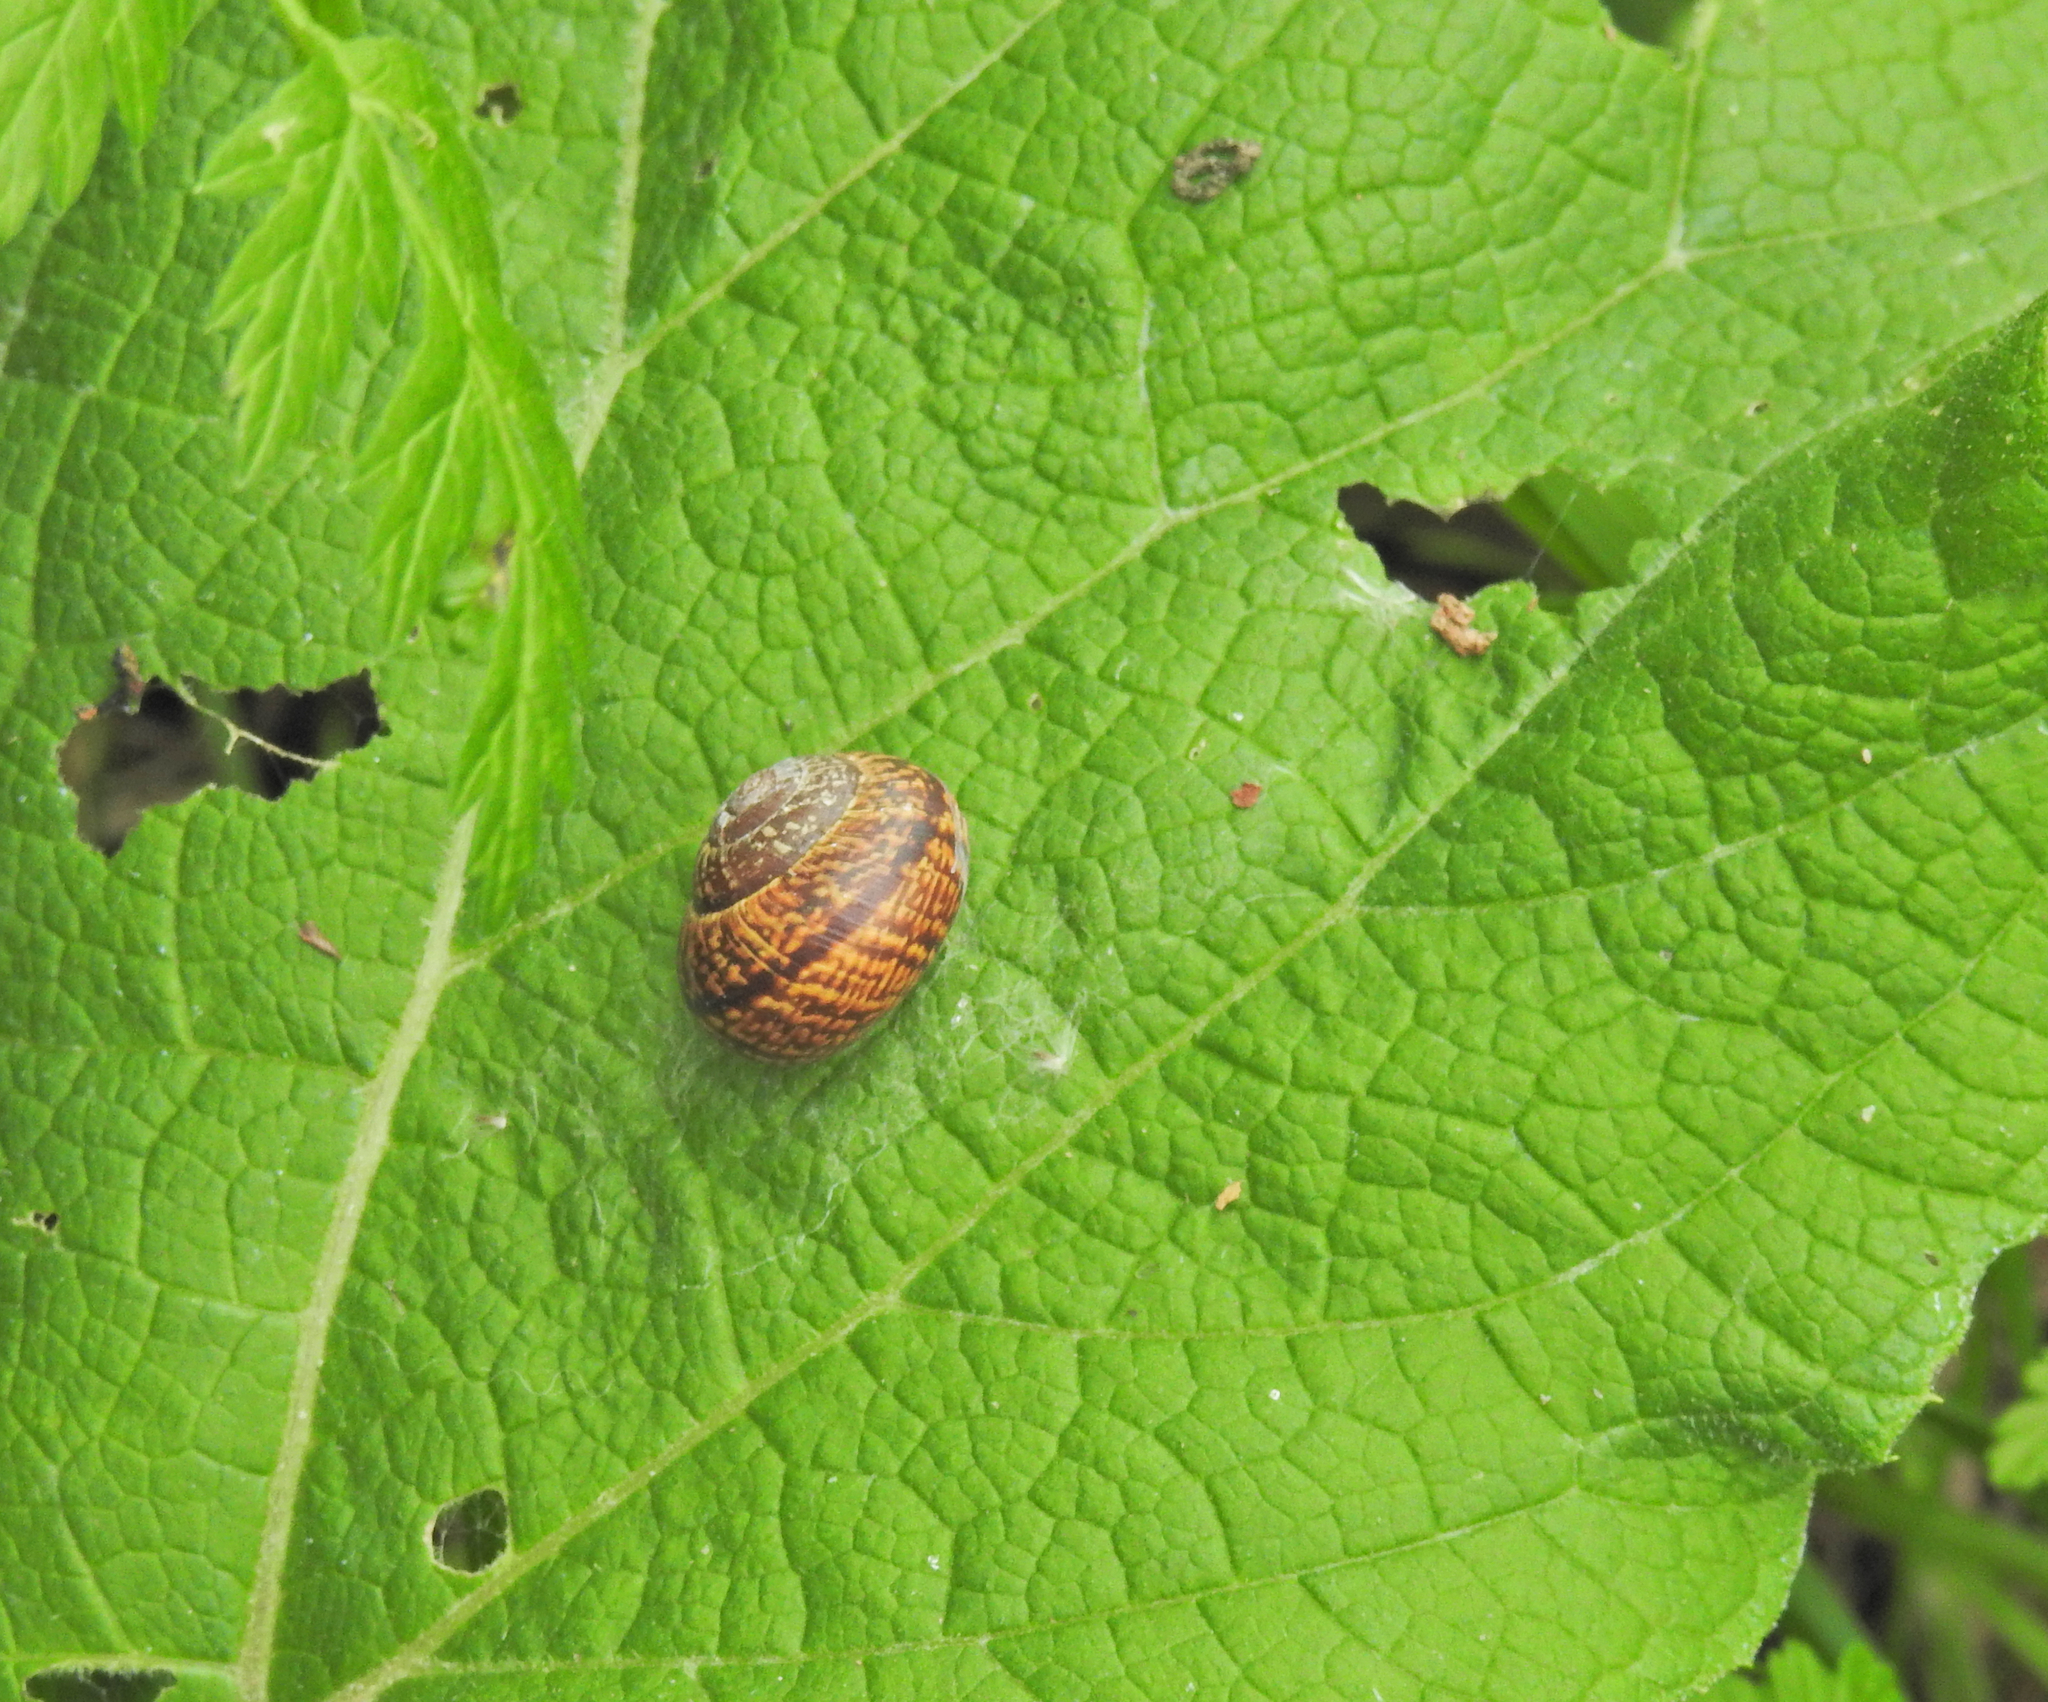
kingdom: Animalia
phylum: Mollusca
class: Gastropoda
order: Stylommatophora
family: Helicidae
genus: Arianta
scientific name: Arianta arbustorum
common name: Copse snail
